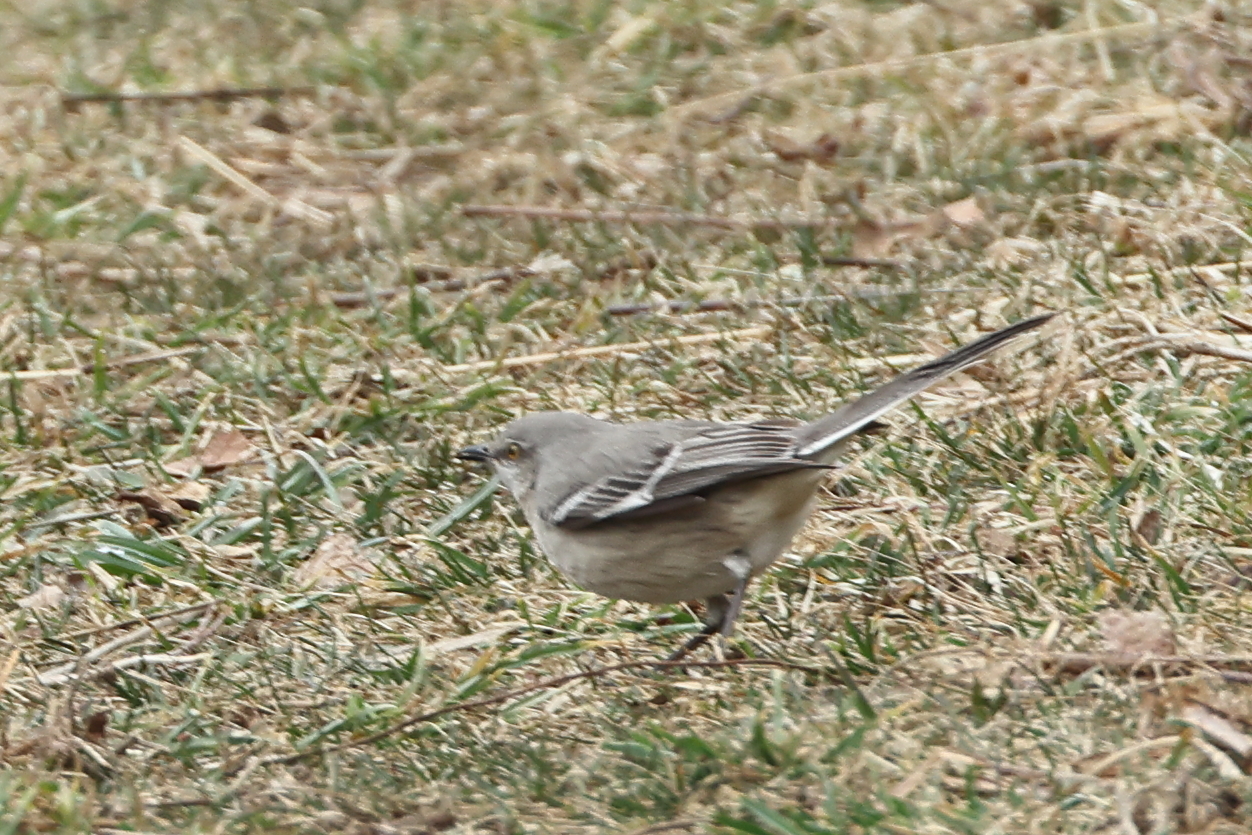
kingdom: Animalia
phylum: Chordata
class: Aves
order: Passeriformes
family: Mimidae
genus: Mimus
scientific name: Mimus polyglottos
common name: Northern mockingbird
